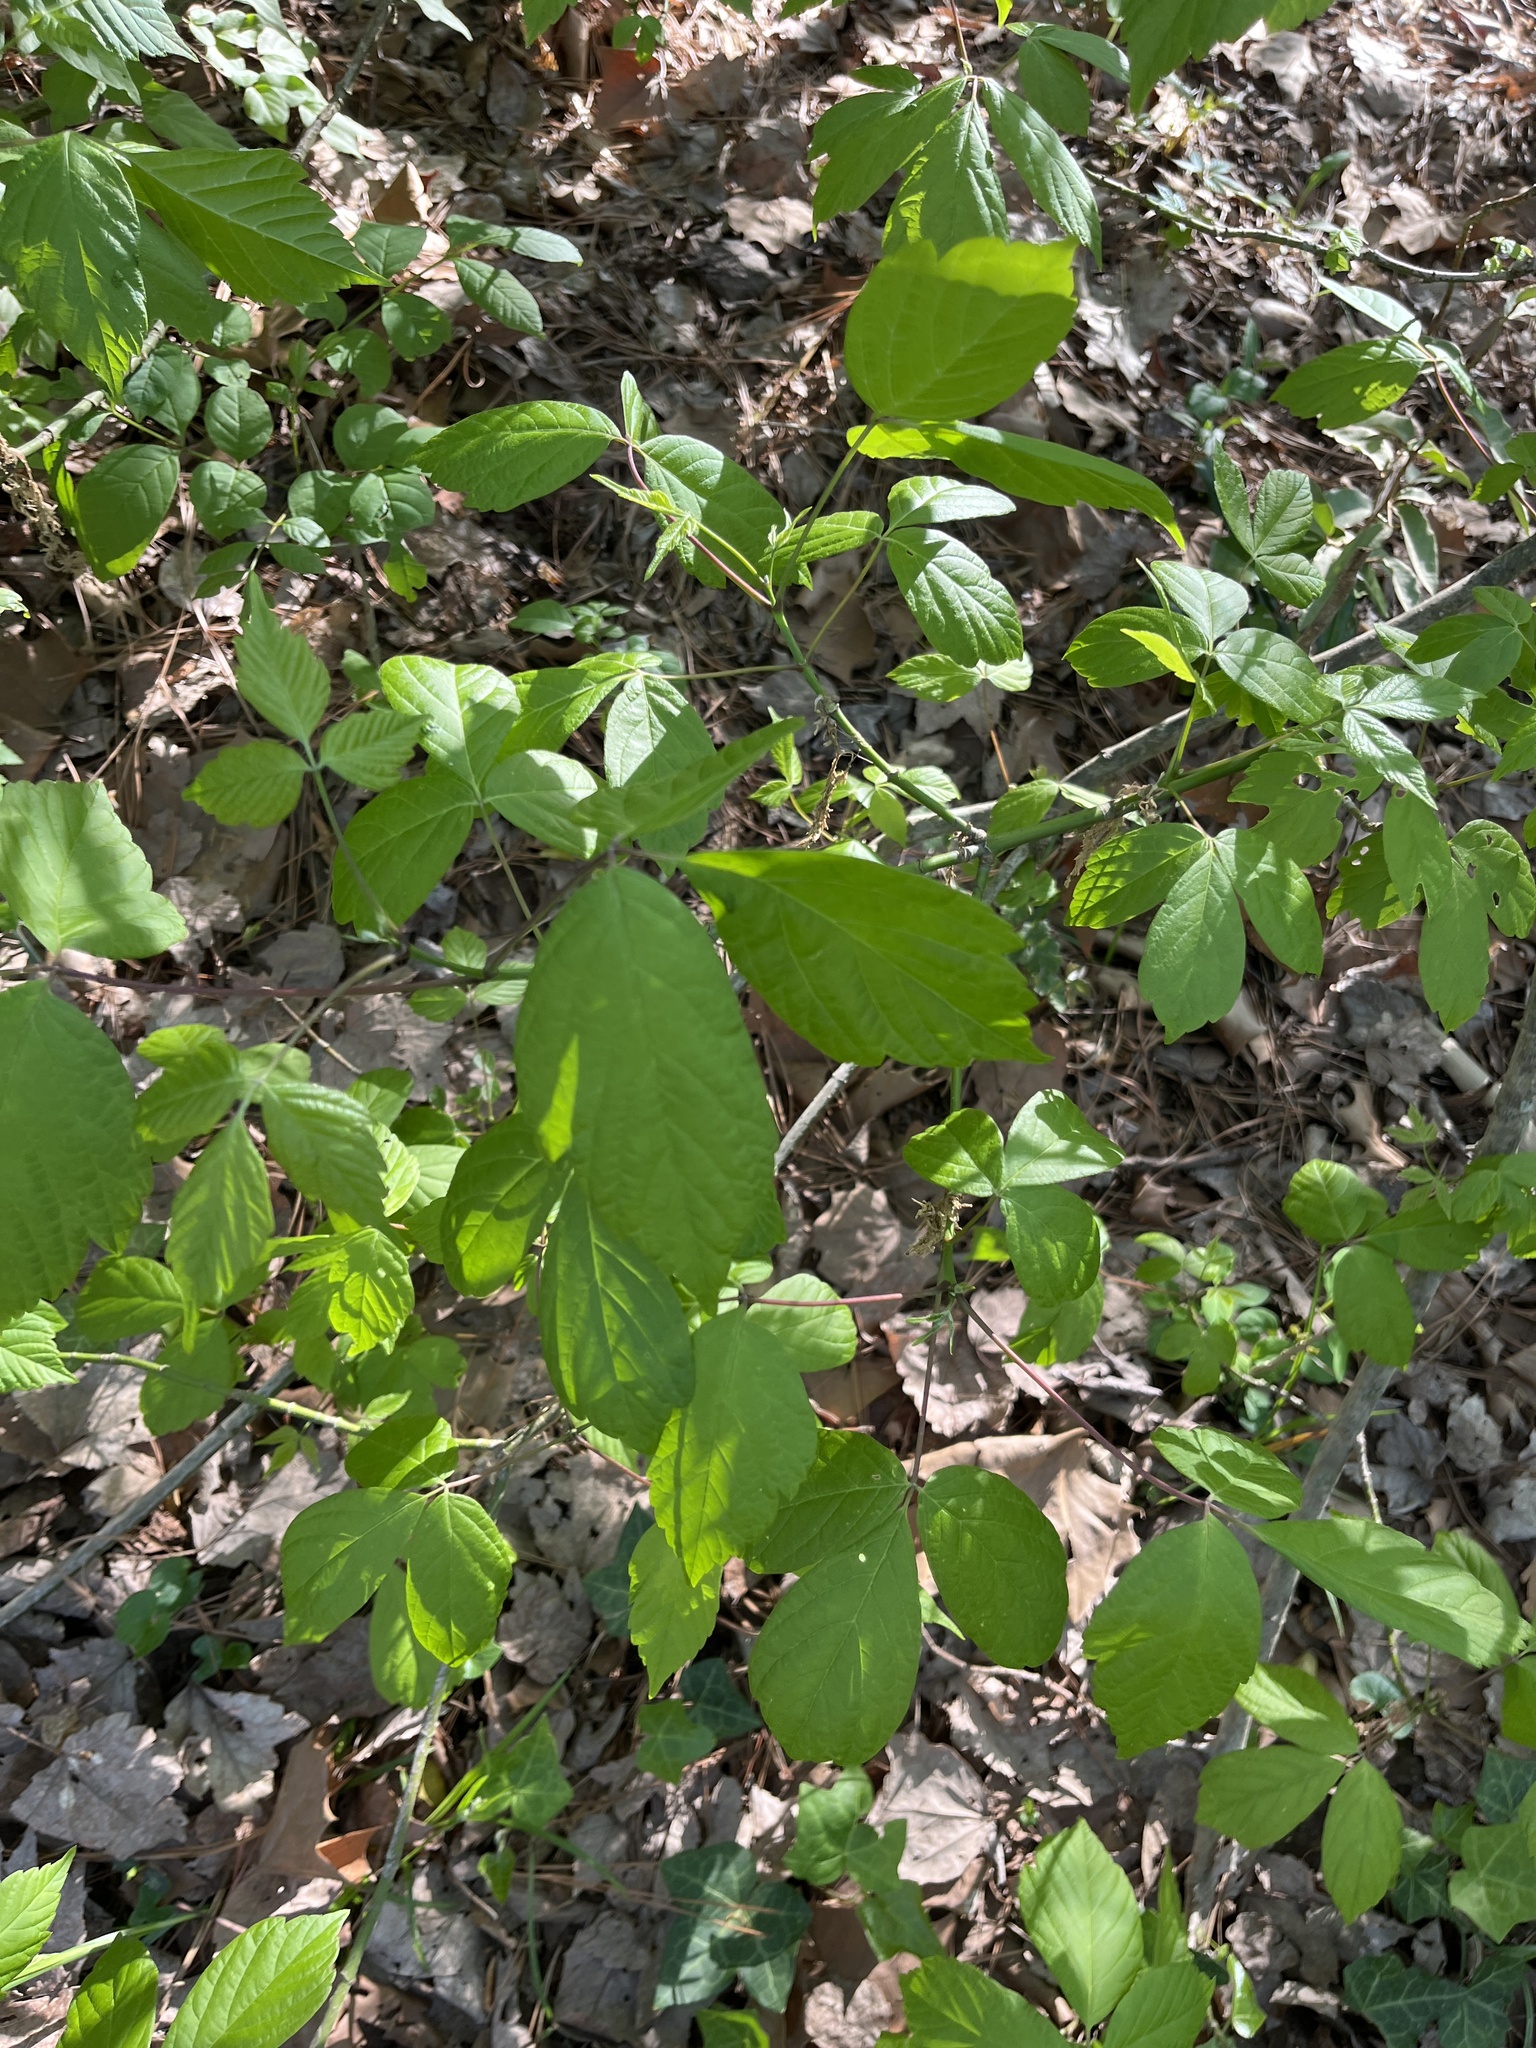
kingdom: Plantae
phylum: Tracheophyta
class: Magnoliopsida
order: Sapindales
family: Sapindaceae
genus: Acer
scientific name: Acer negundo
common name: Ashleaf maple
